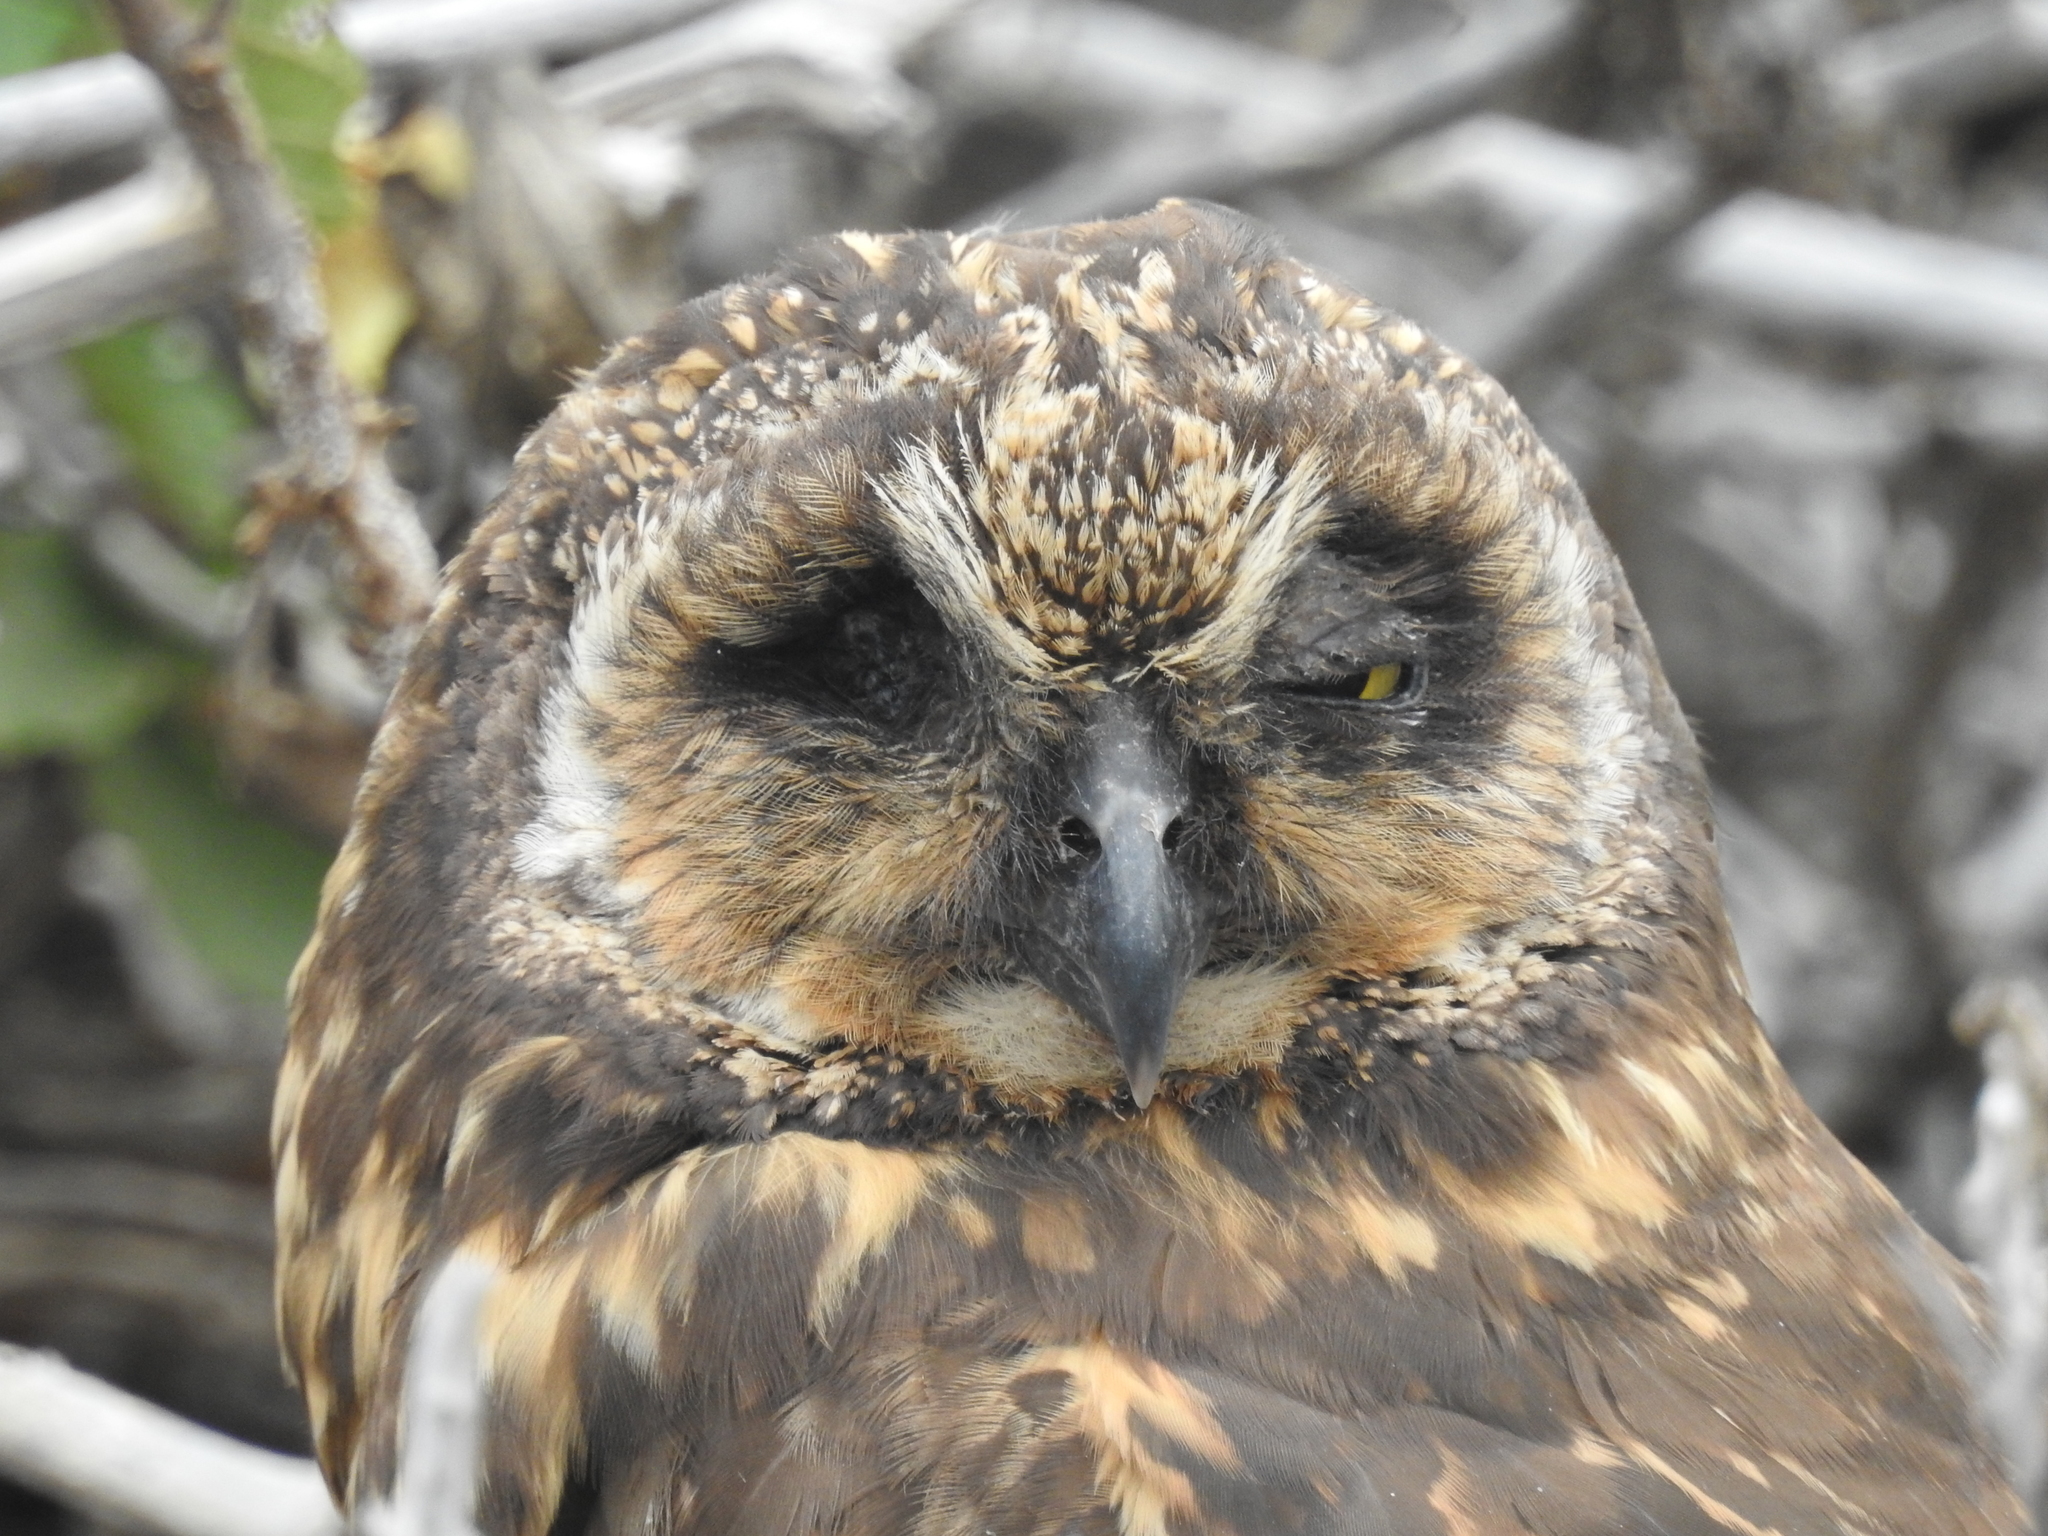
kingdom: Animalia
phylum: Chordata
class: Aves
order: Strigiformes
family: Strigidae
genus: Asio
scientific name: Asio flammeus
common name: Short-eared owl
